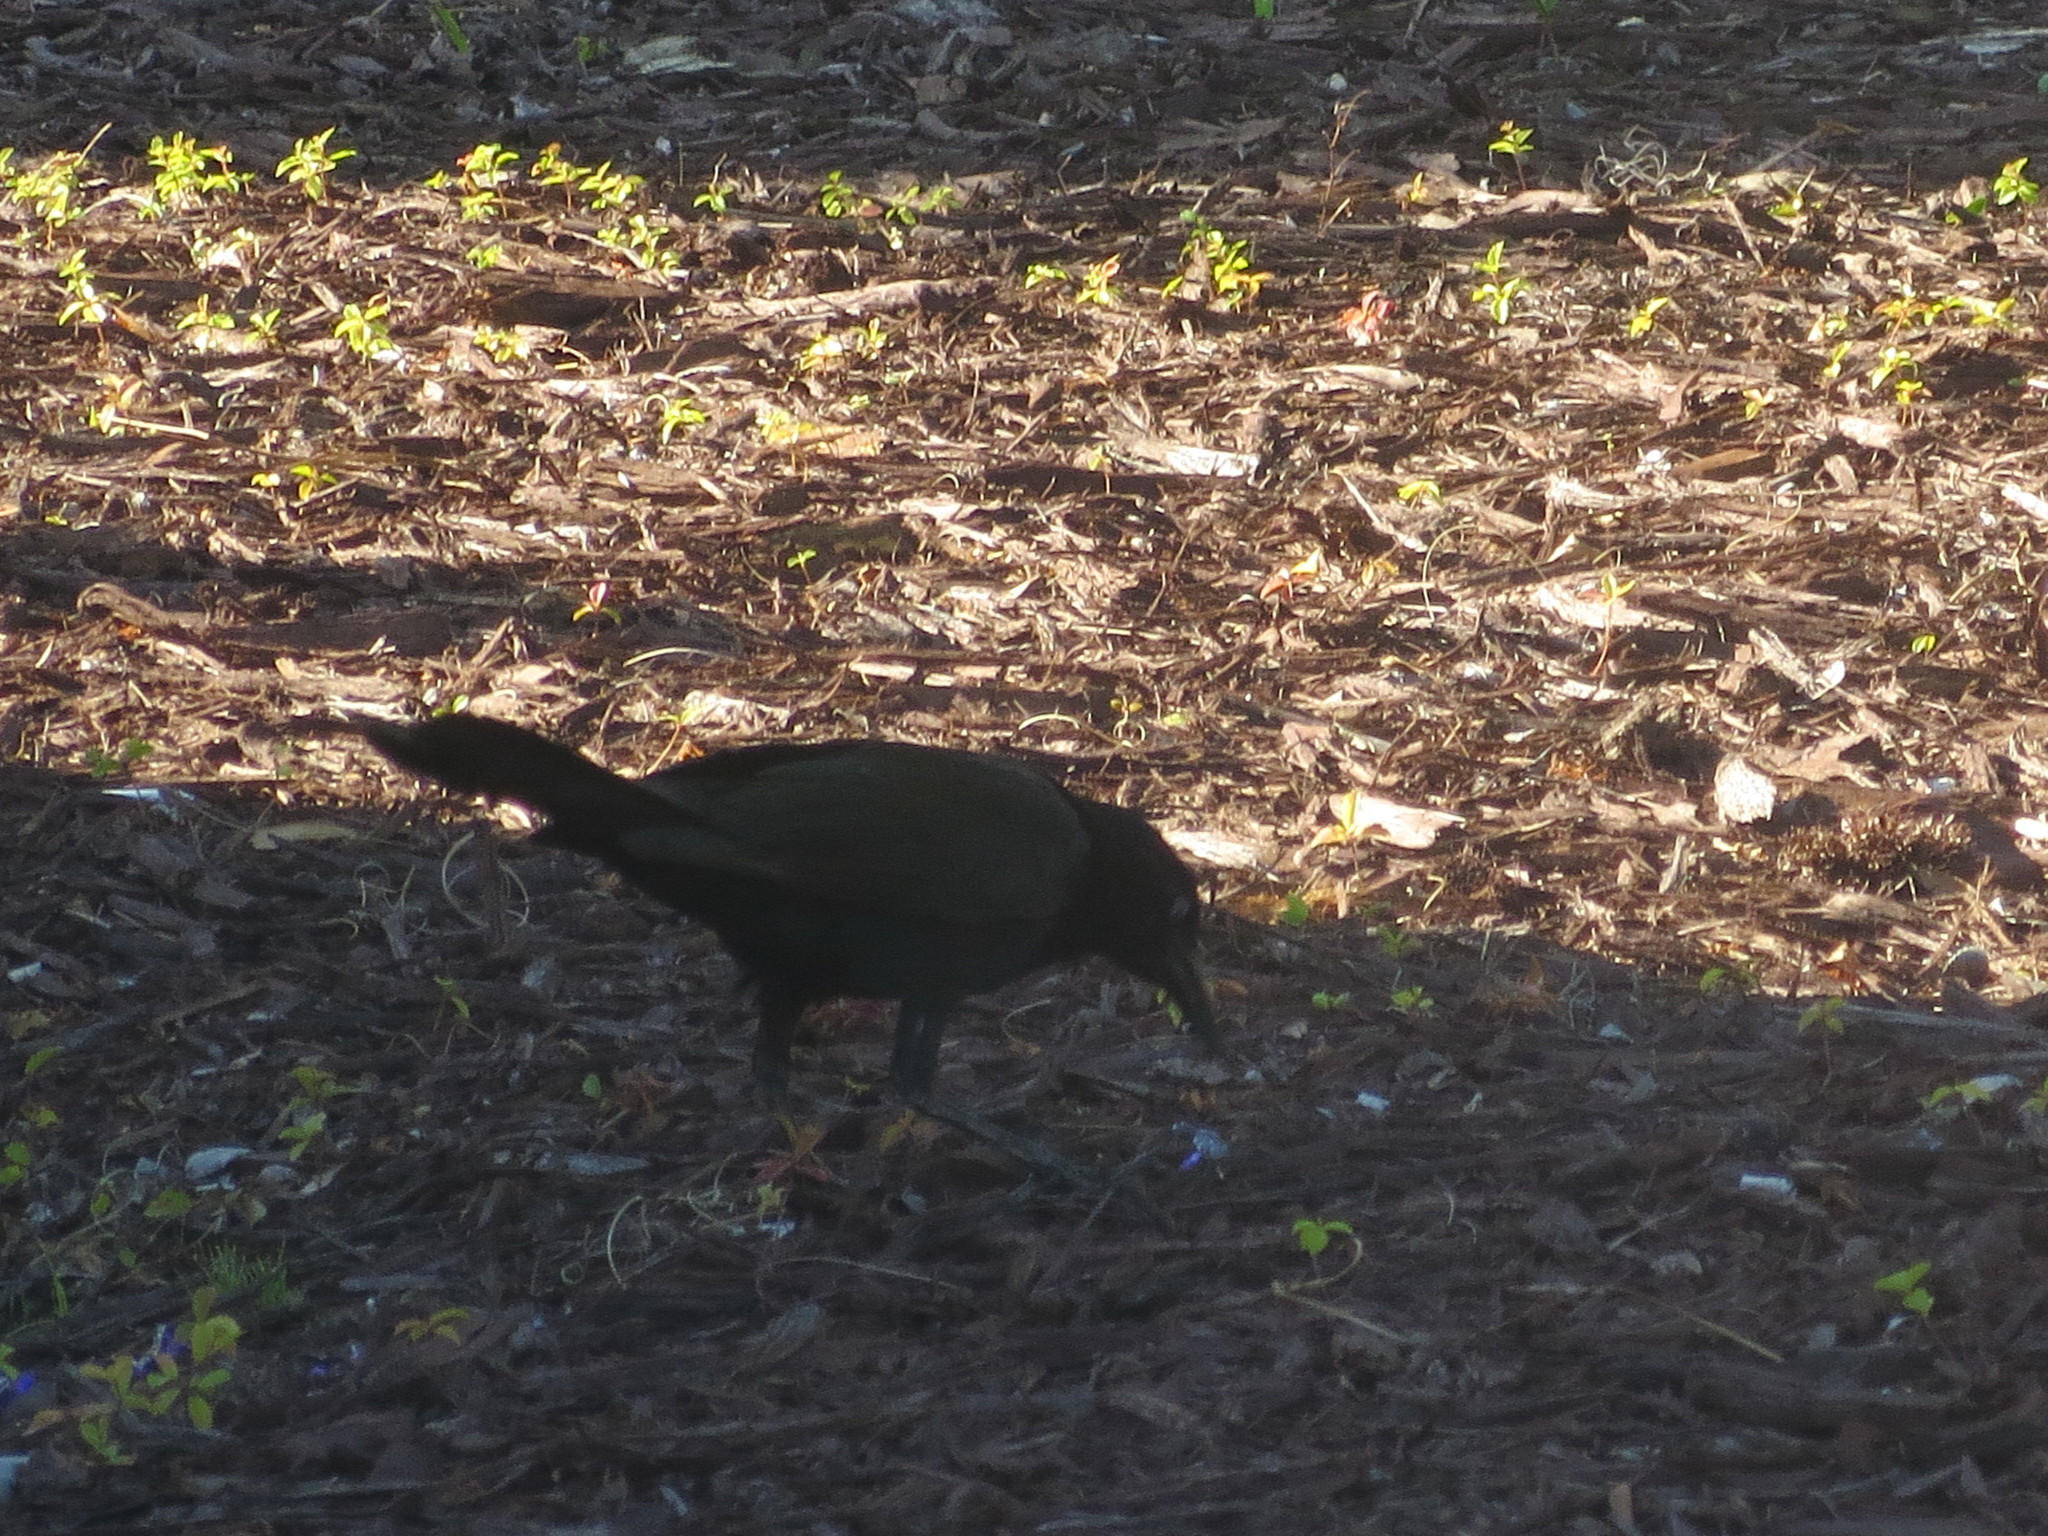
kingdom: Animalia
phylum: Chordata
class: Aves
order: Passeriformes
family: Icteridae
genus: Quiscalus
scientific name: Quiscalus major
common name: Boat-tailed grackle
